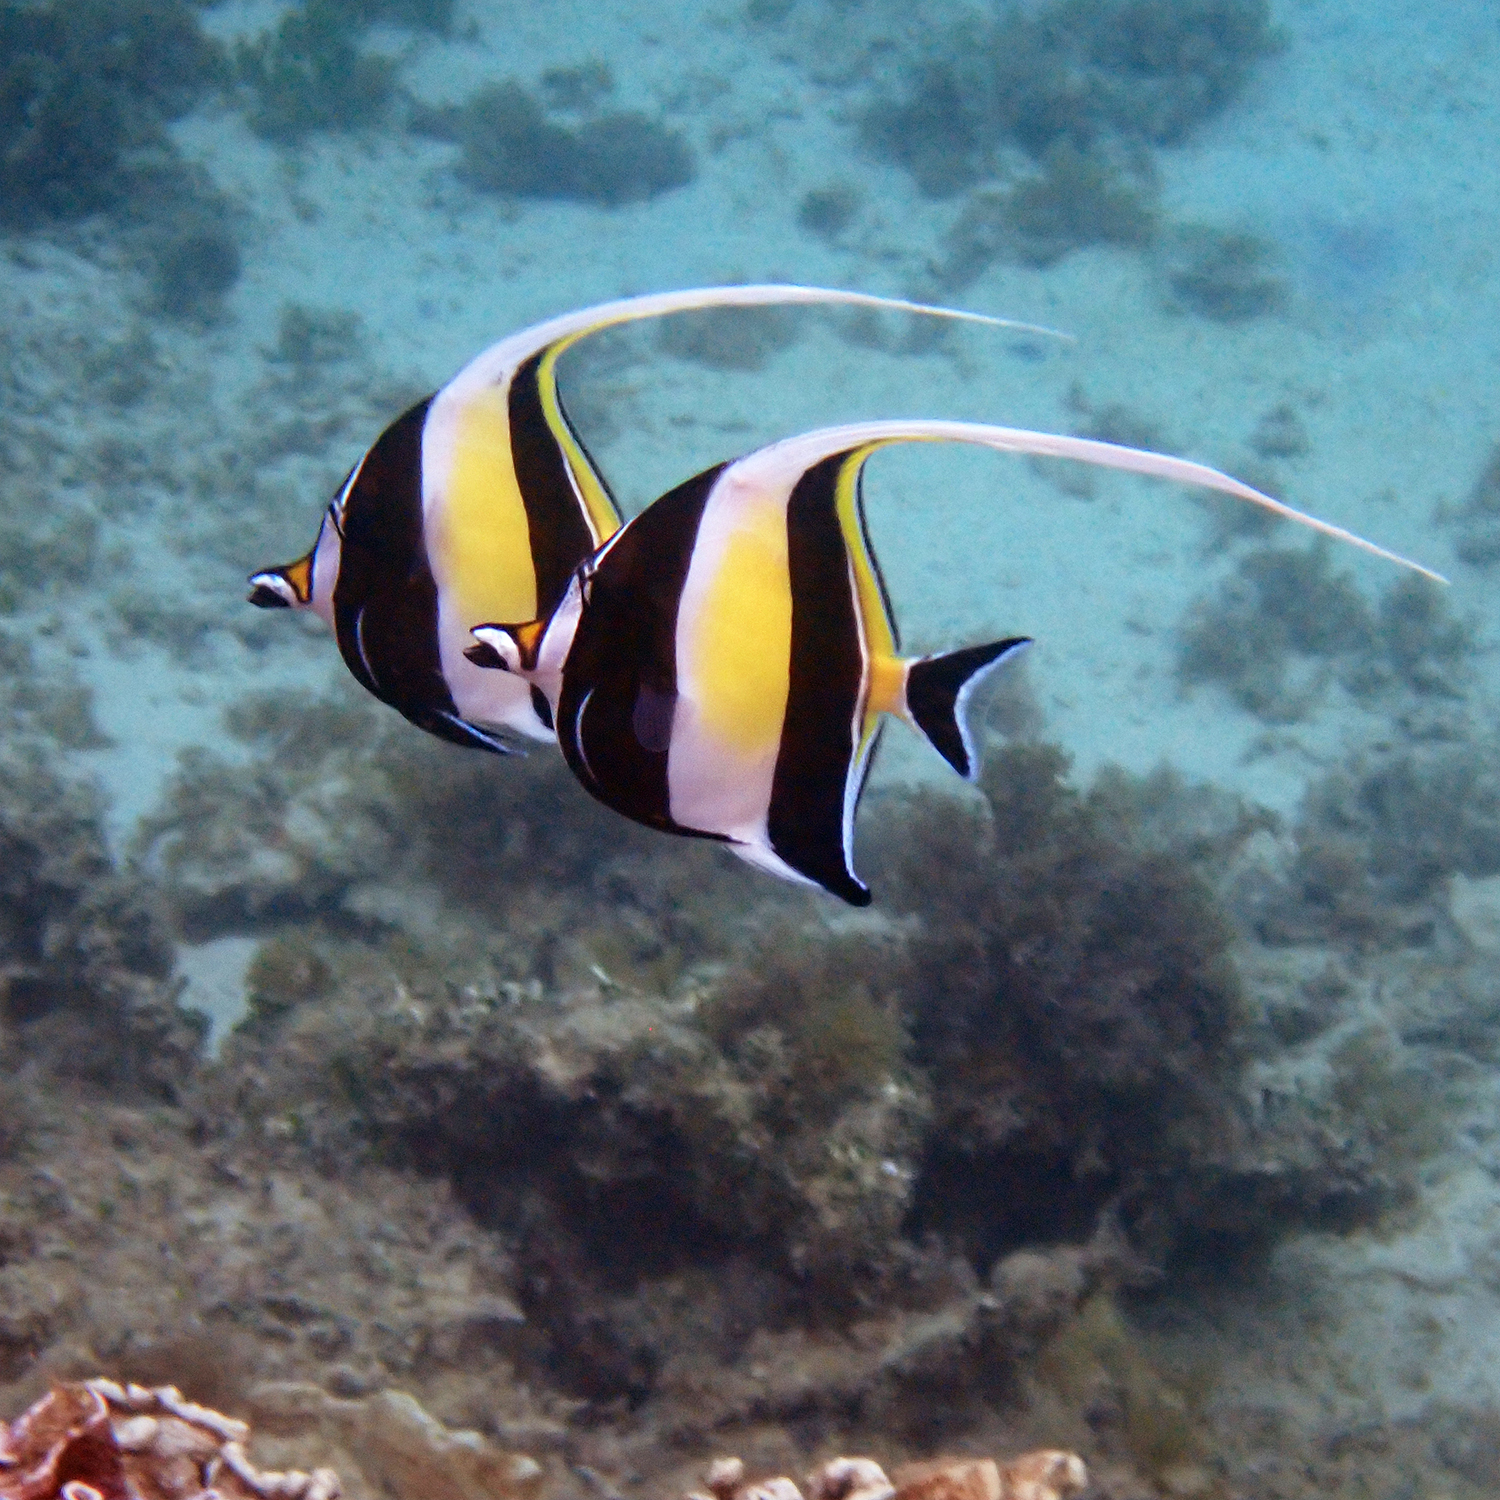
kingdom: Animalia
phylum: Chordata
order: Perciformes
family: Zanclidae
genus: Zanclus
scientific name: Zanclus cornutus
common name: Moorish idol
